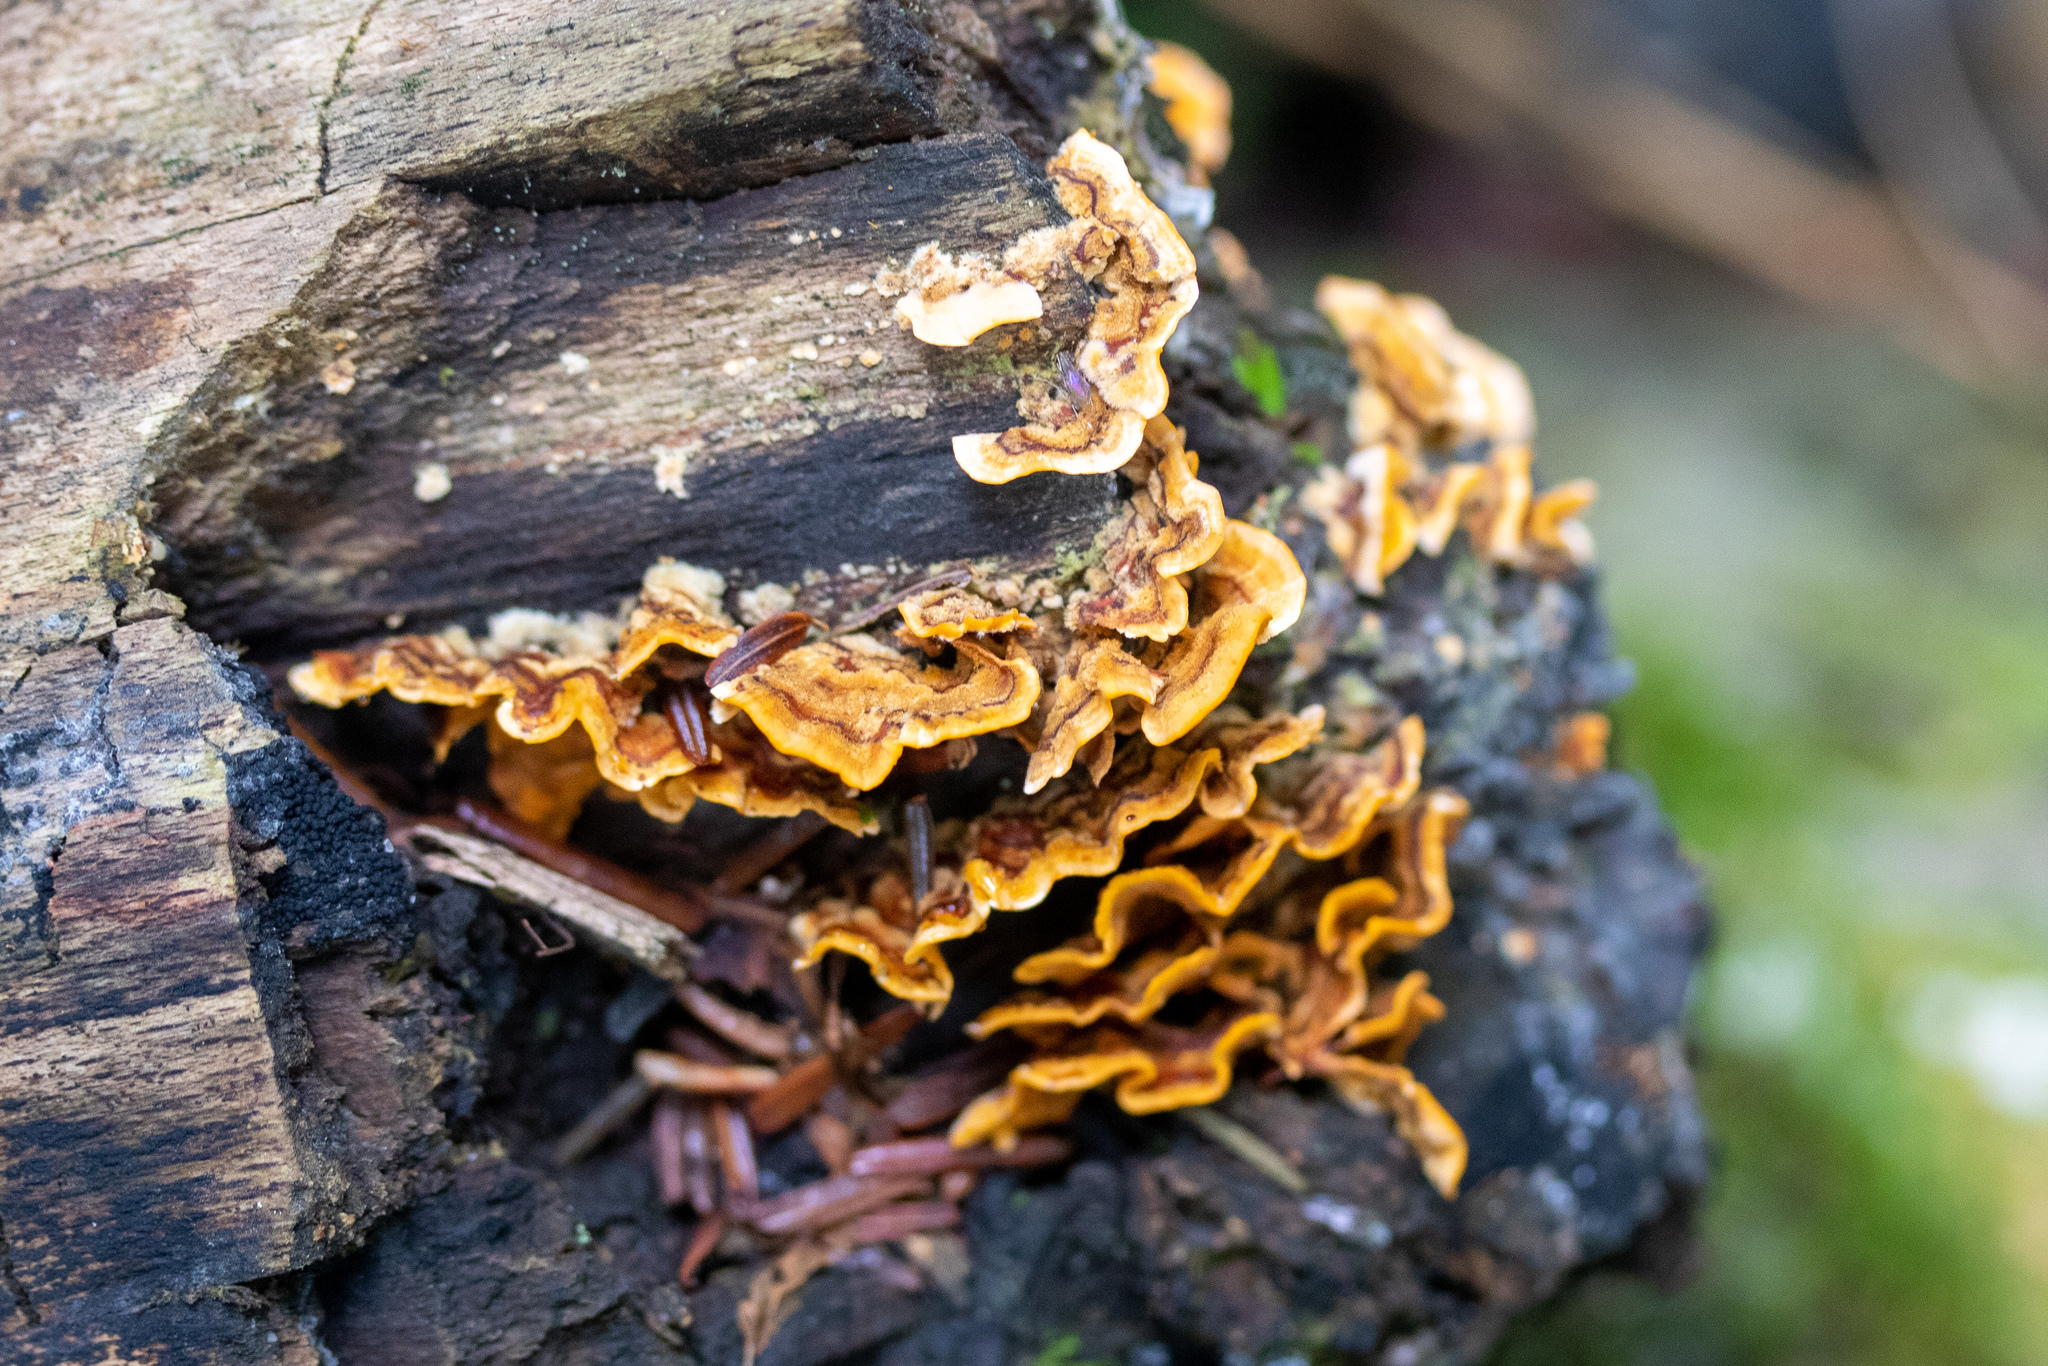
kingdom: Fungi
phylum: Basidiomycota
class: Agaricomycetes
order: Russulales
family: Stereaceae
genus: Stereum
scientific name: Stereum complicatum
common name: Crowded parchment
